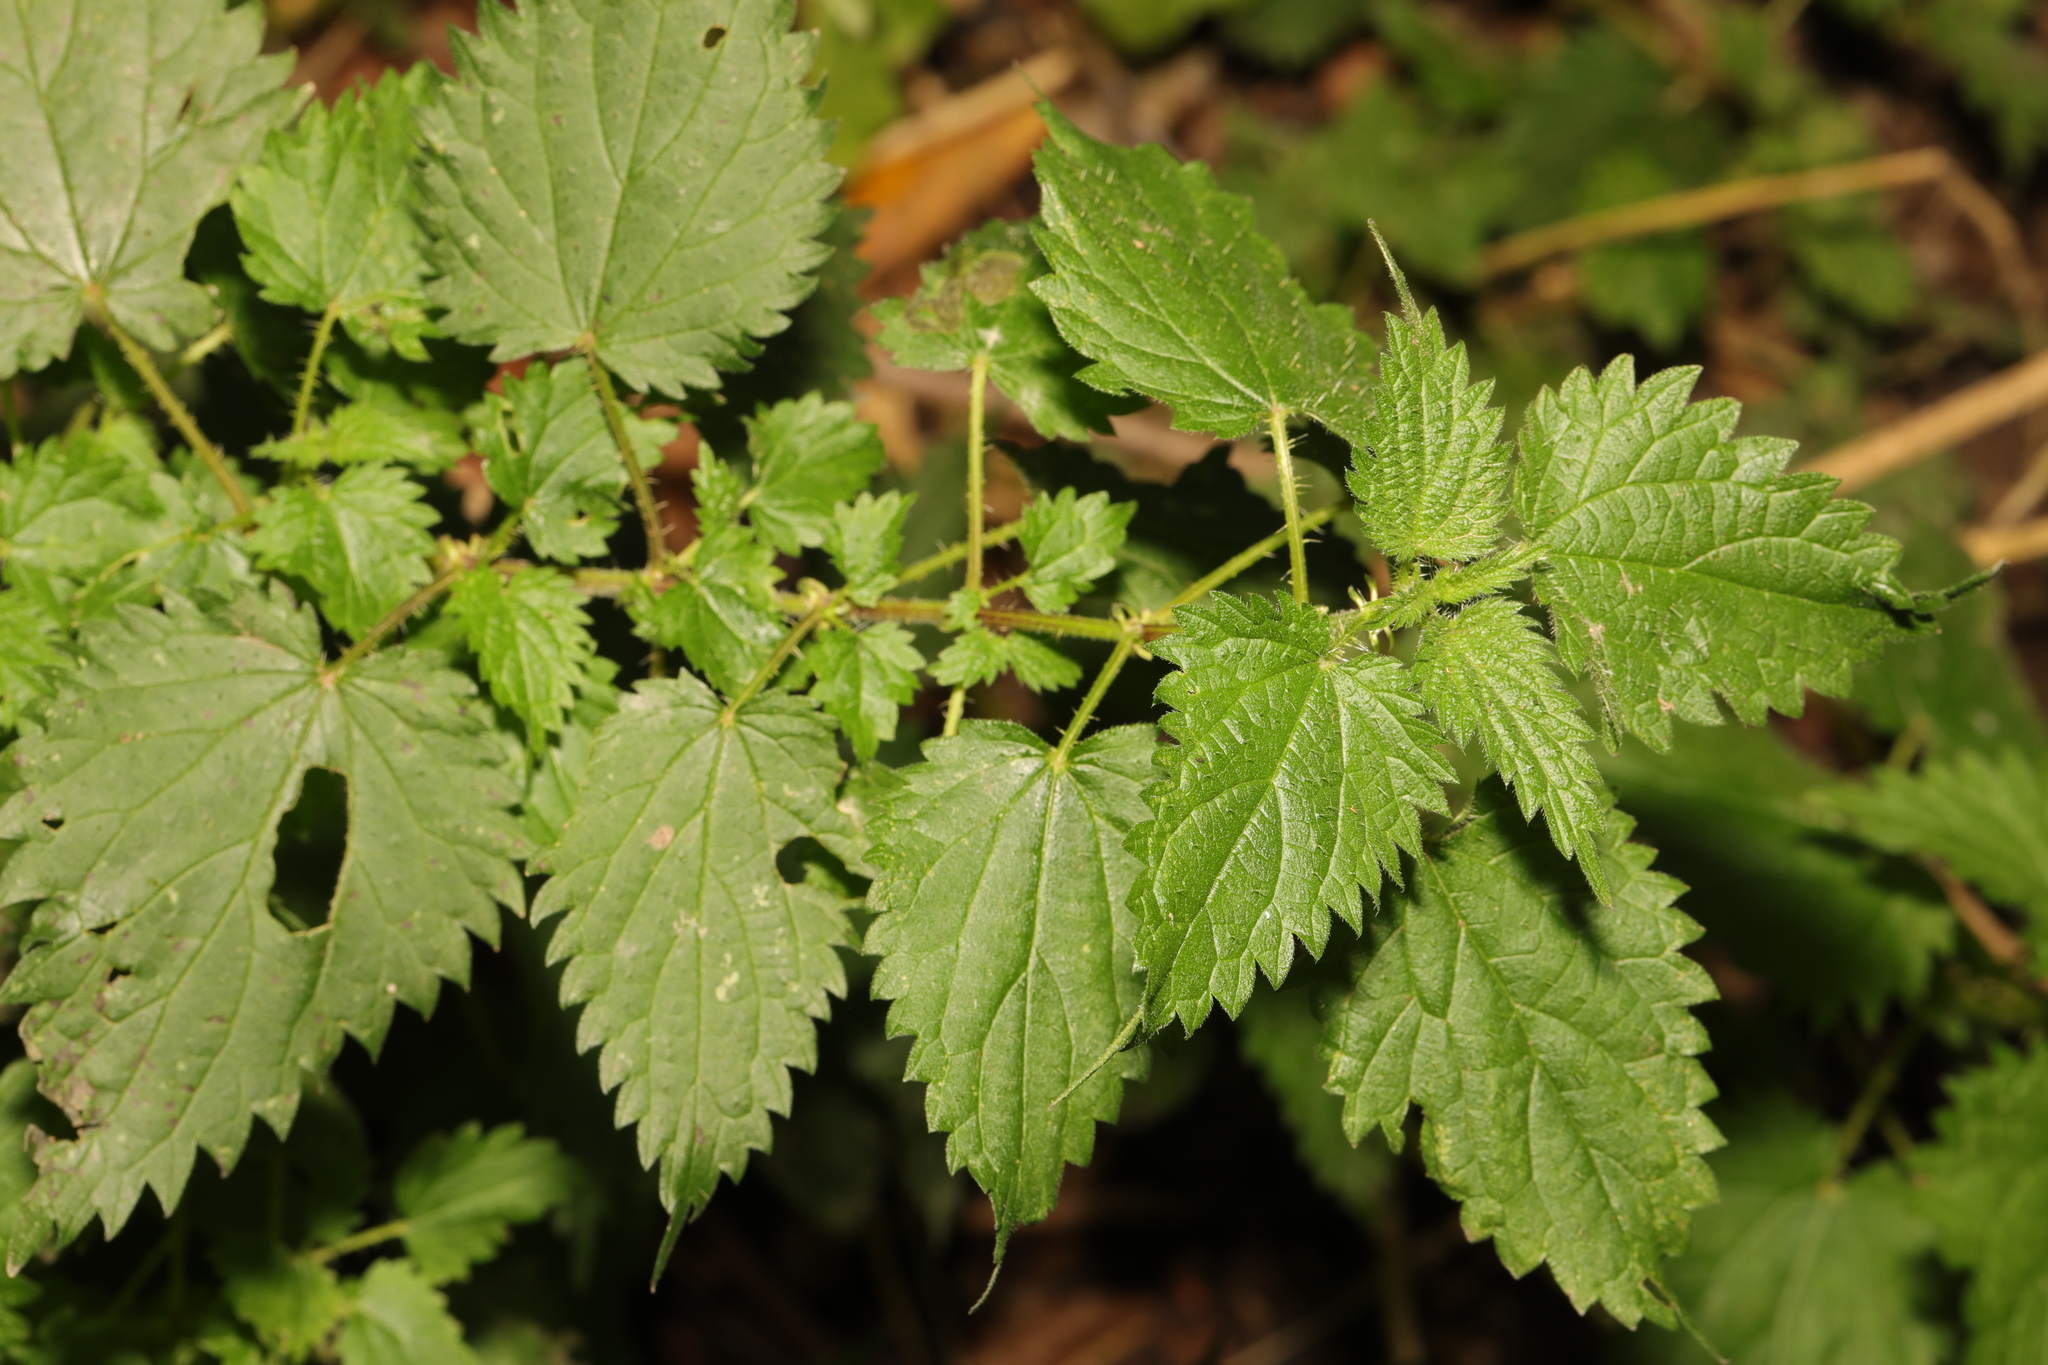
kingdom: Plantae
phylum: Tracheophyta
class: Magnoliopsida
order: Rosales
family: Urticaceae
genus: Urtica
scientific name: Urtica dioica
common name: Common nettle
